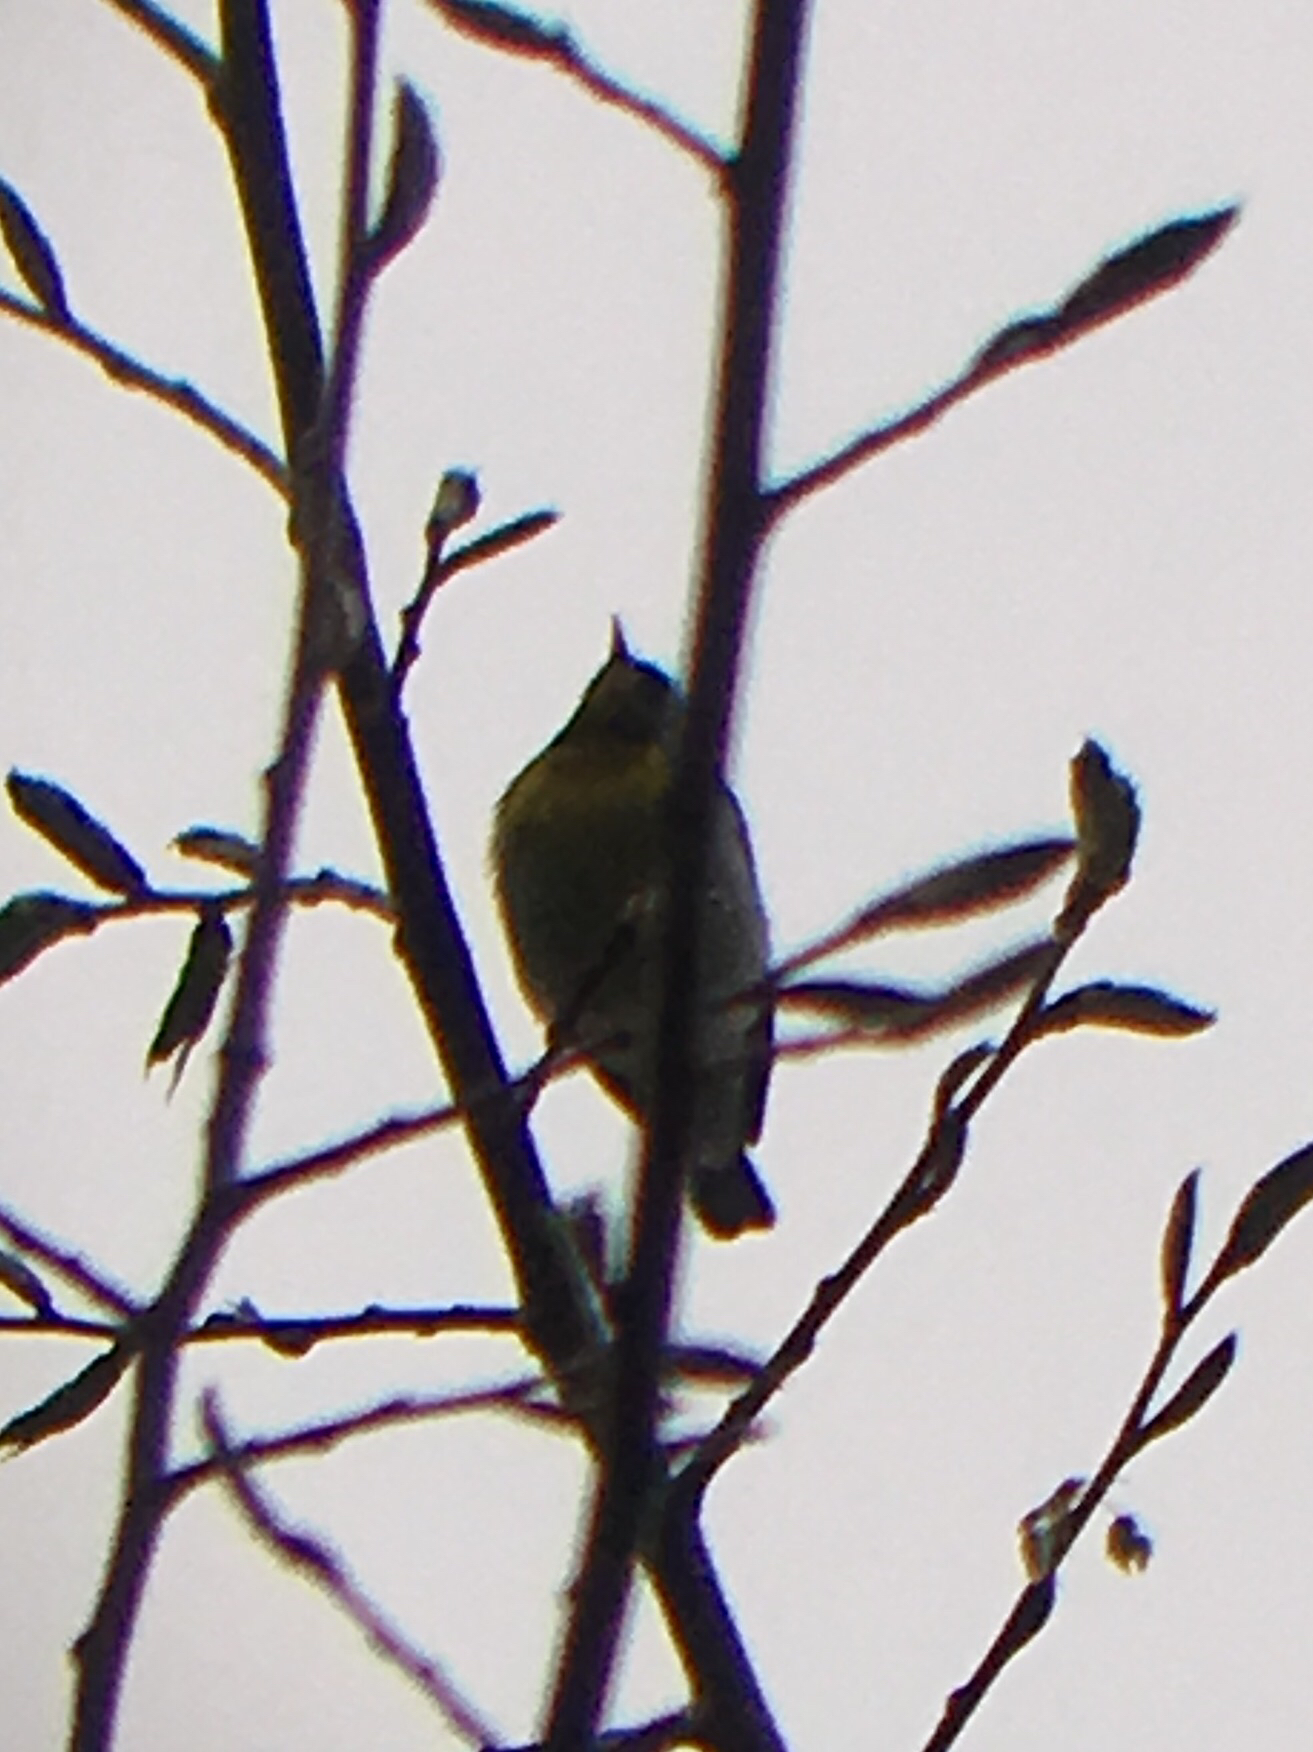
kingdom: Animalia
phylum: Chordata
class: Aves
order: Passeriformes
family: Parulidae
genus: Setophaga
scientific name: Setophaga americana
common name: Northern parula
